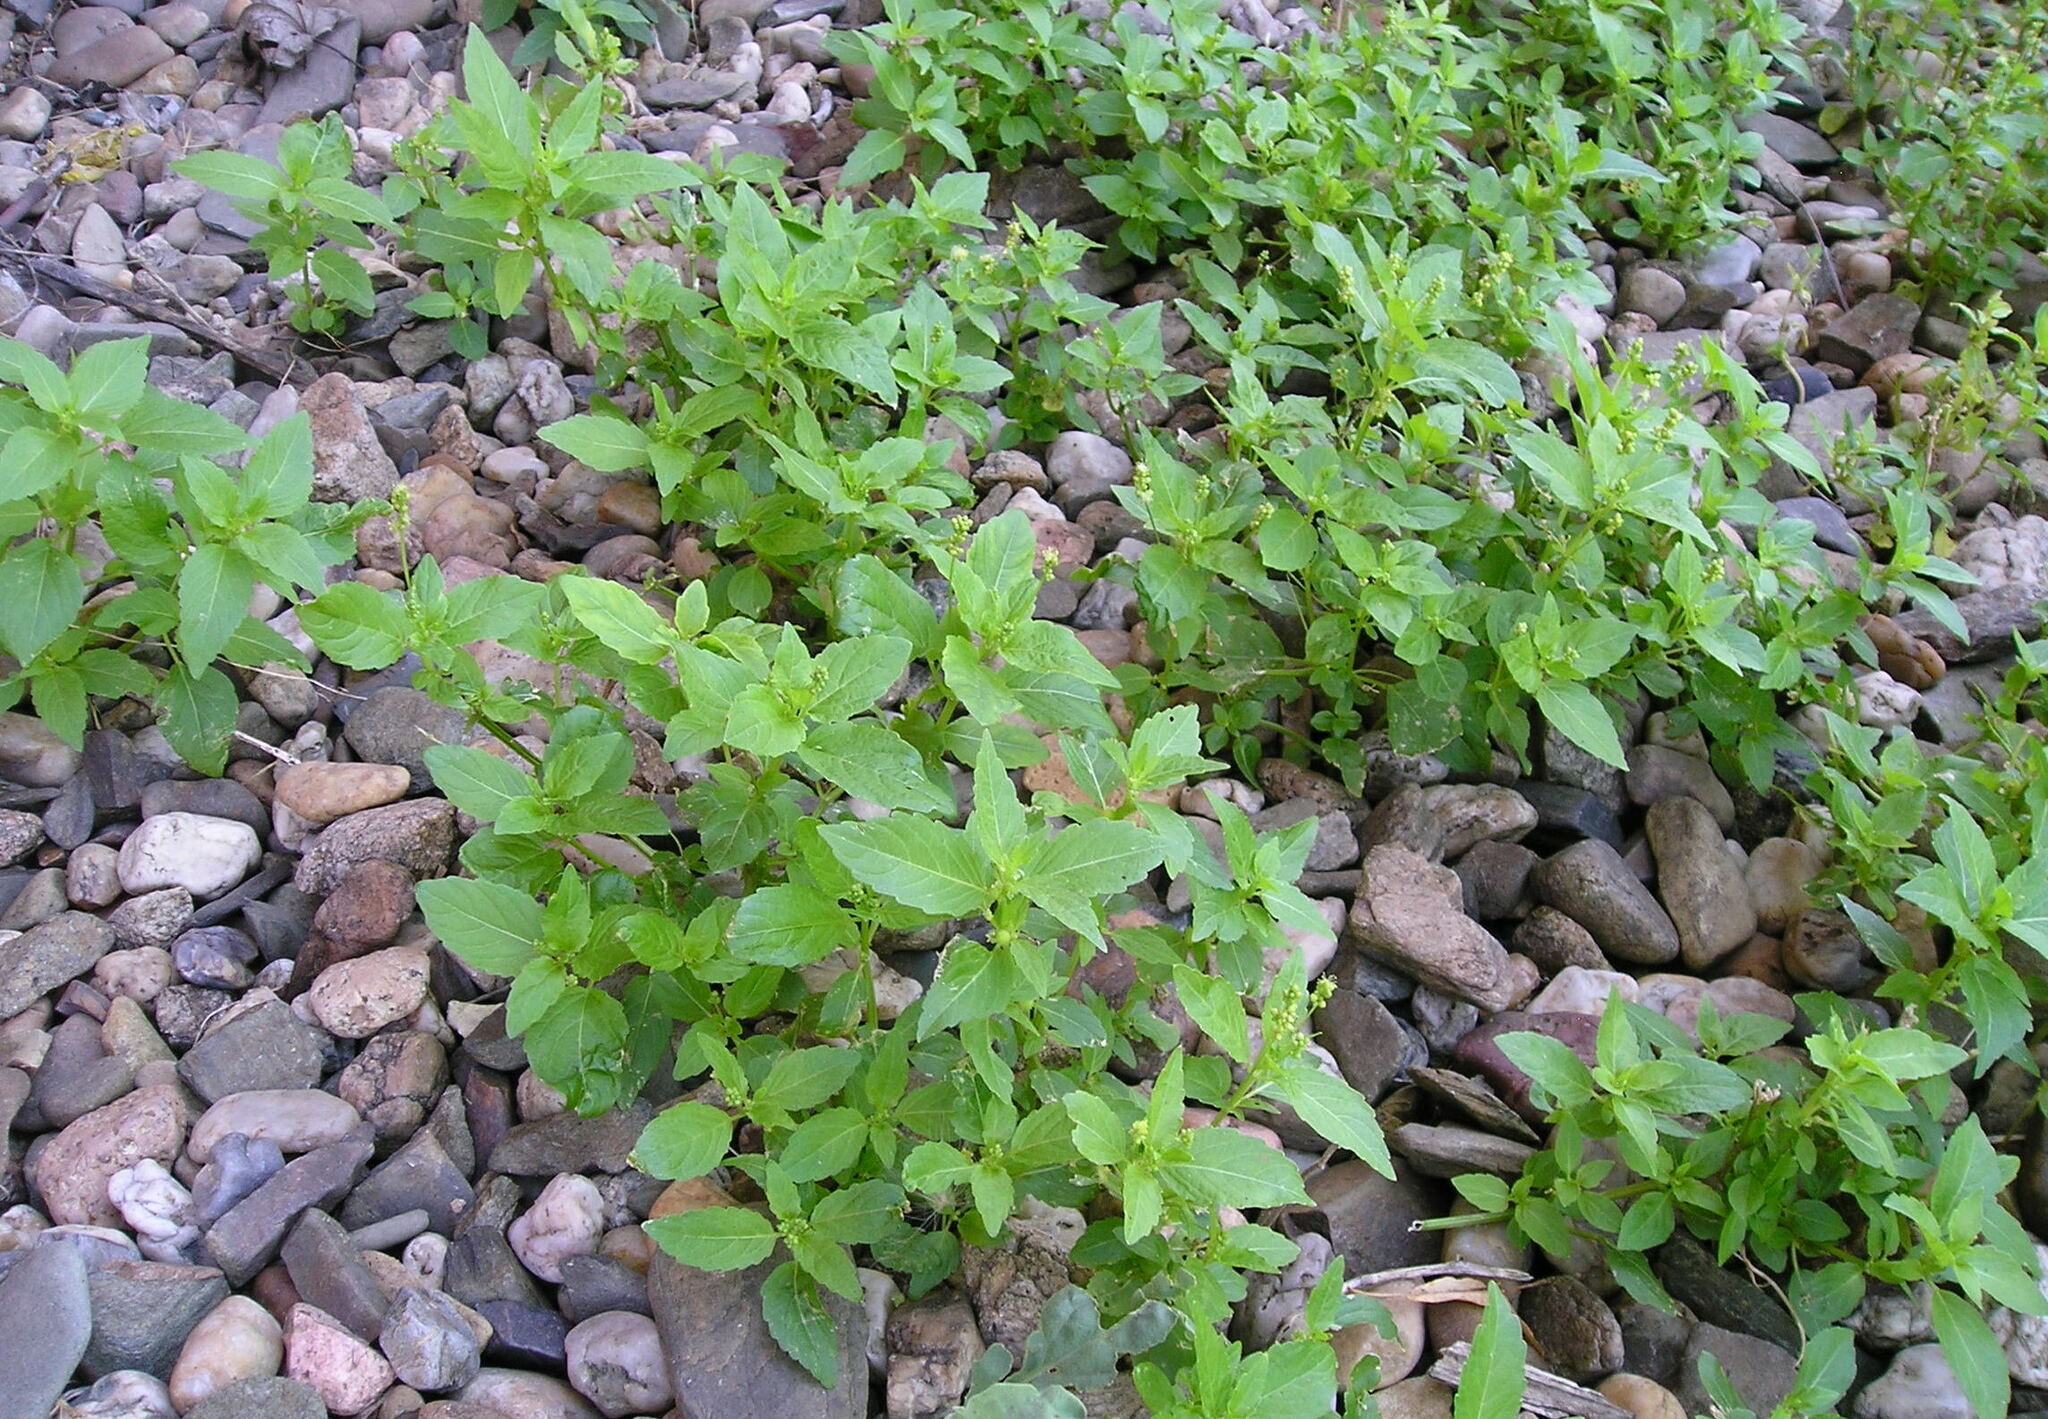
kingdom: Plantae
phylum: Tracheophyta
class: Magnoliopsida
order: Malpighiales
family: Euphorbiaceae
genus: Mercurialis
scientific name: Mercurialis annua
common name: Annual mercury
